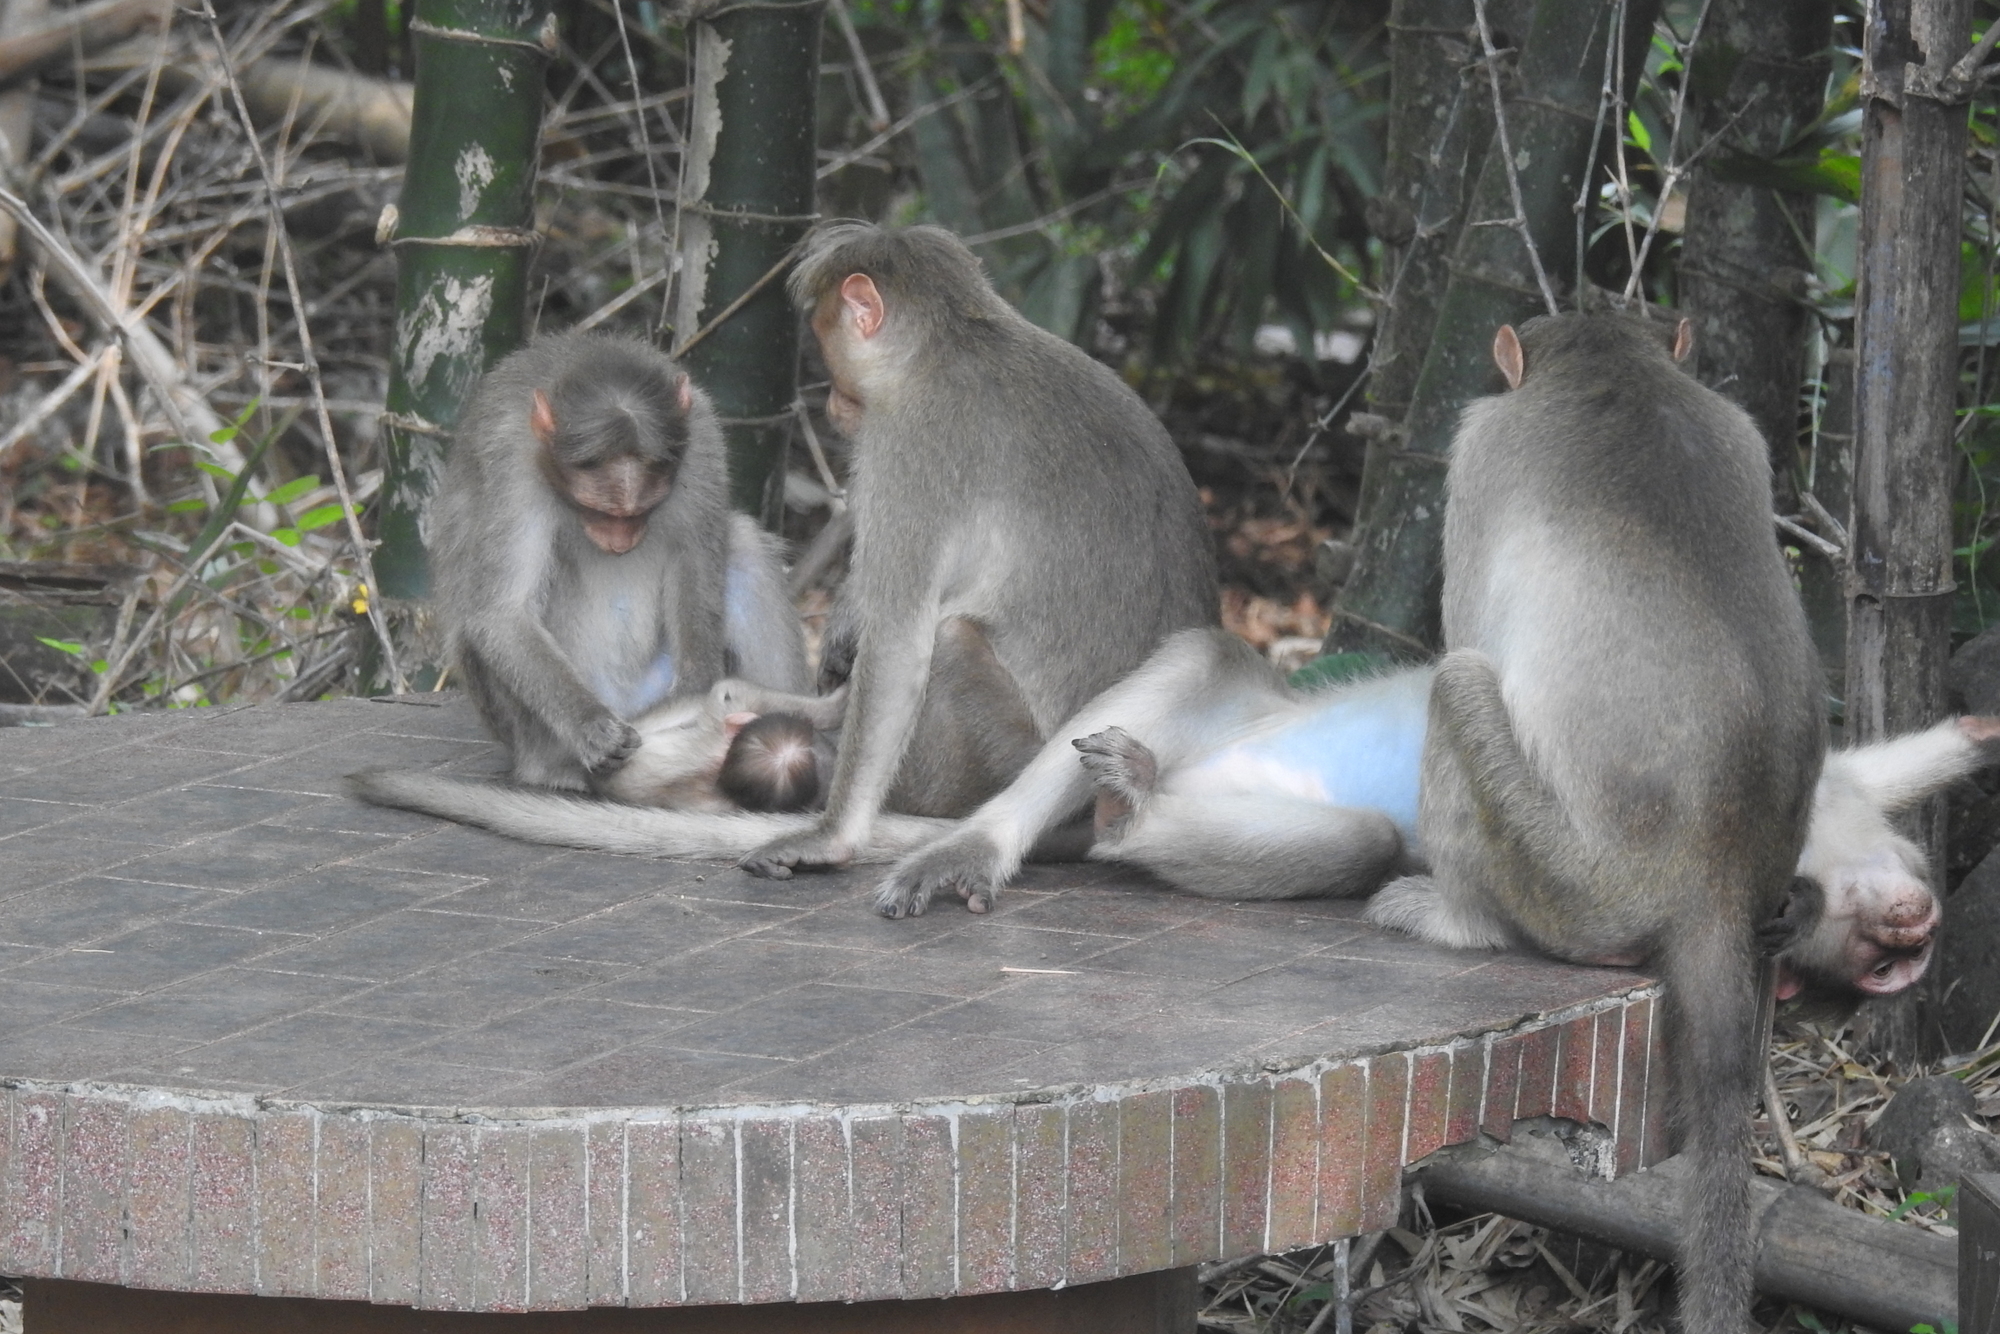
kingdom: Animalia
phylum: Chordata
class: Mammalia
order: Primates
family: Cercopithecidae
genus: Macaca
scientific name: Macaca radiata
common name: Bonnet macaque
